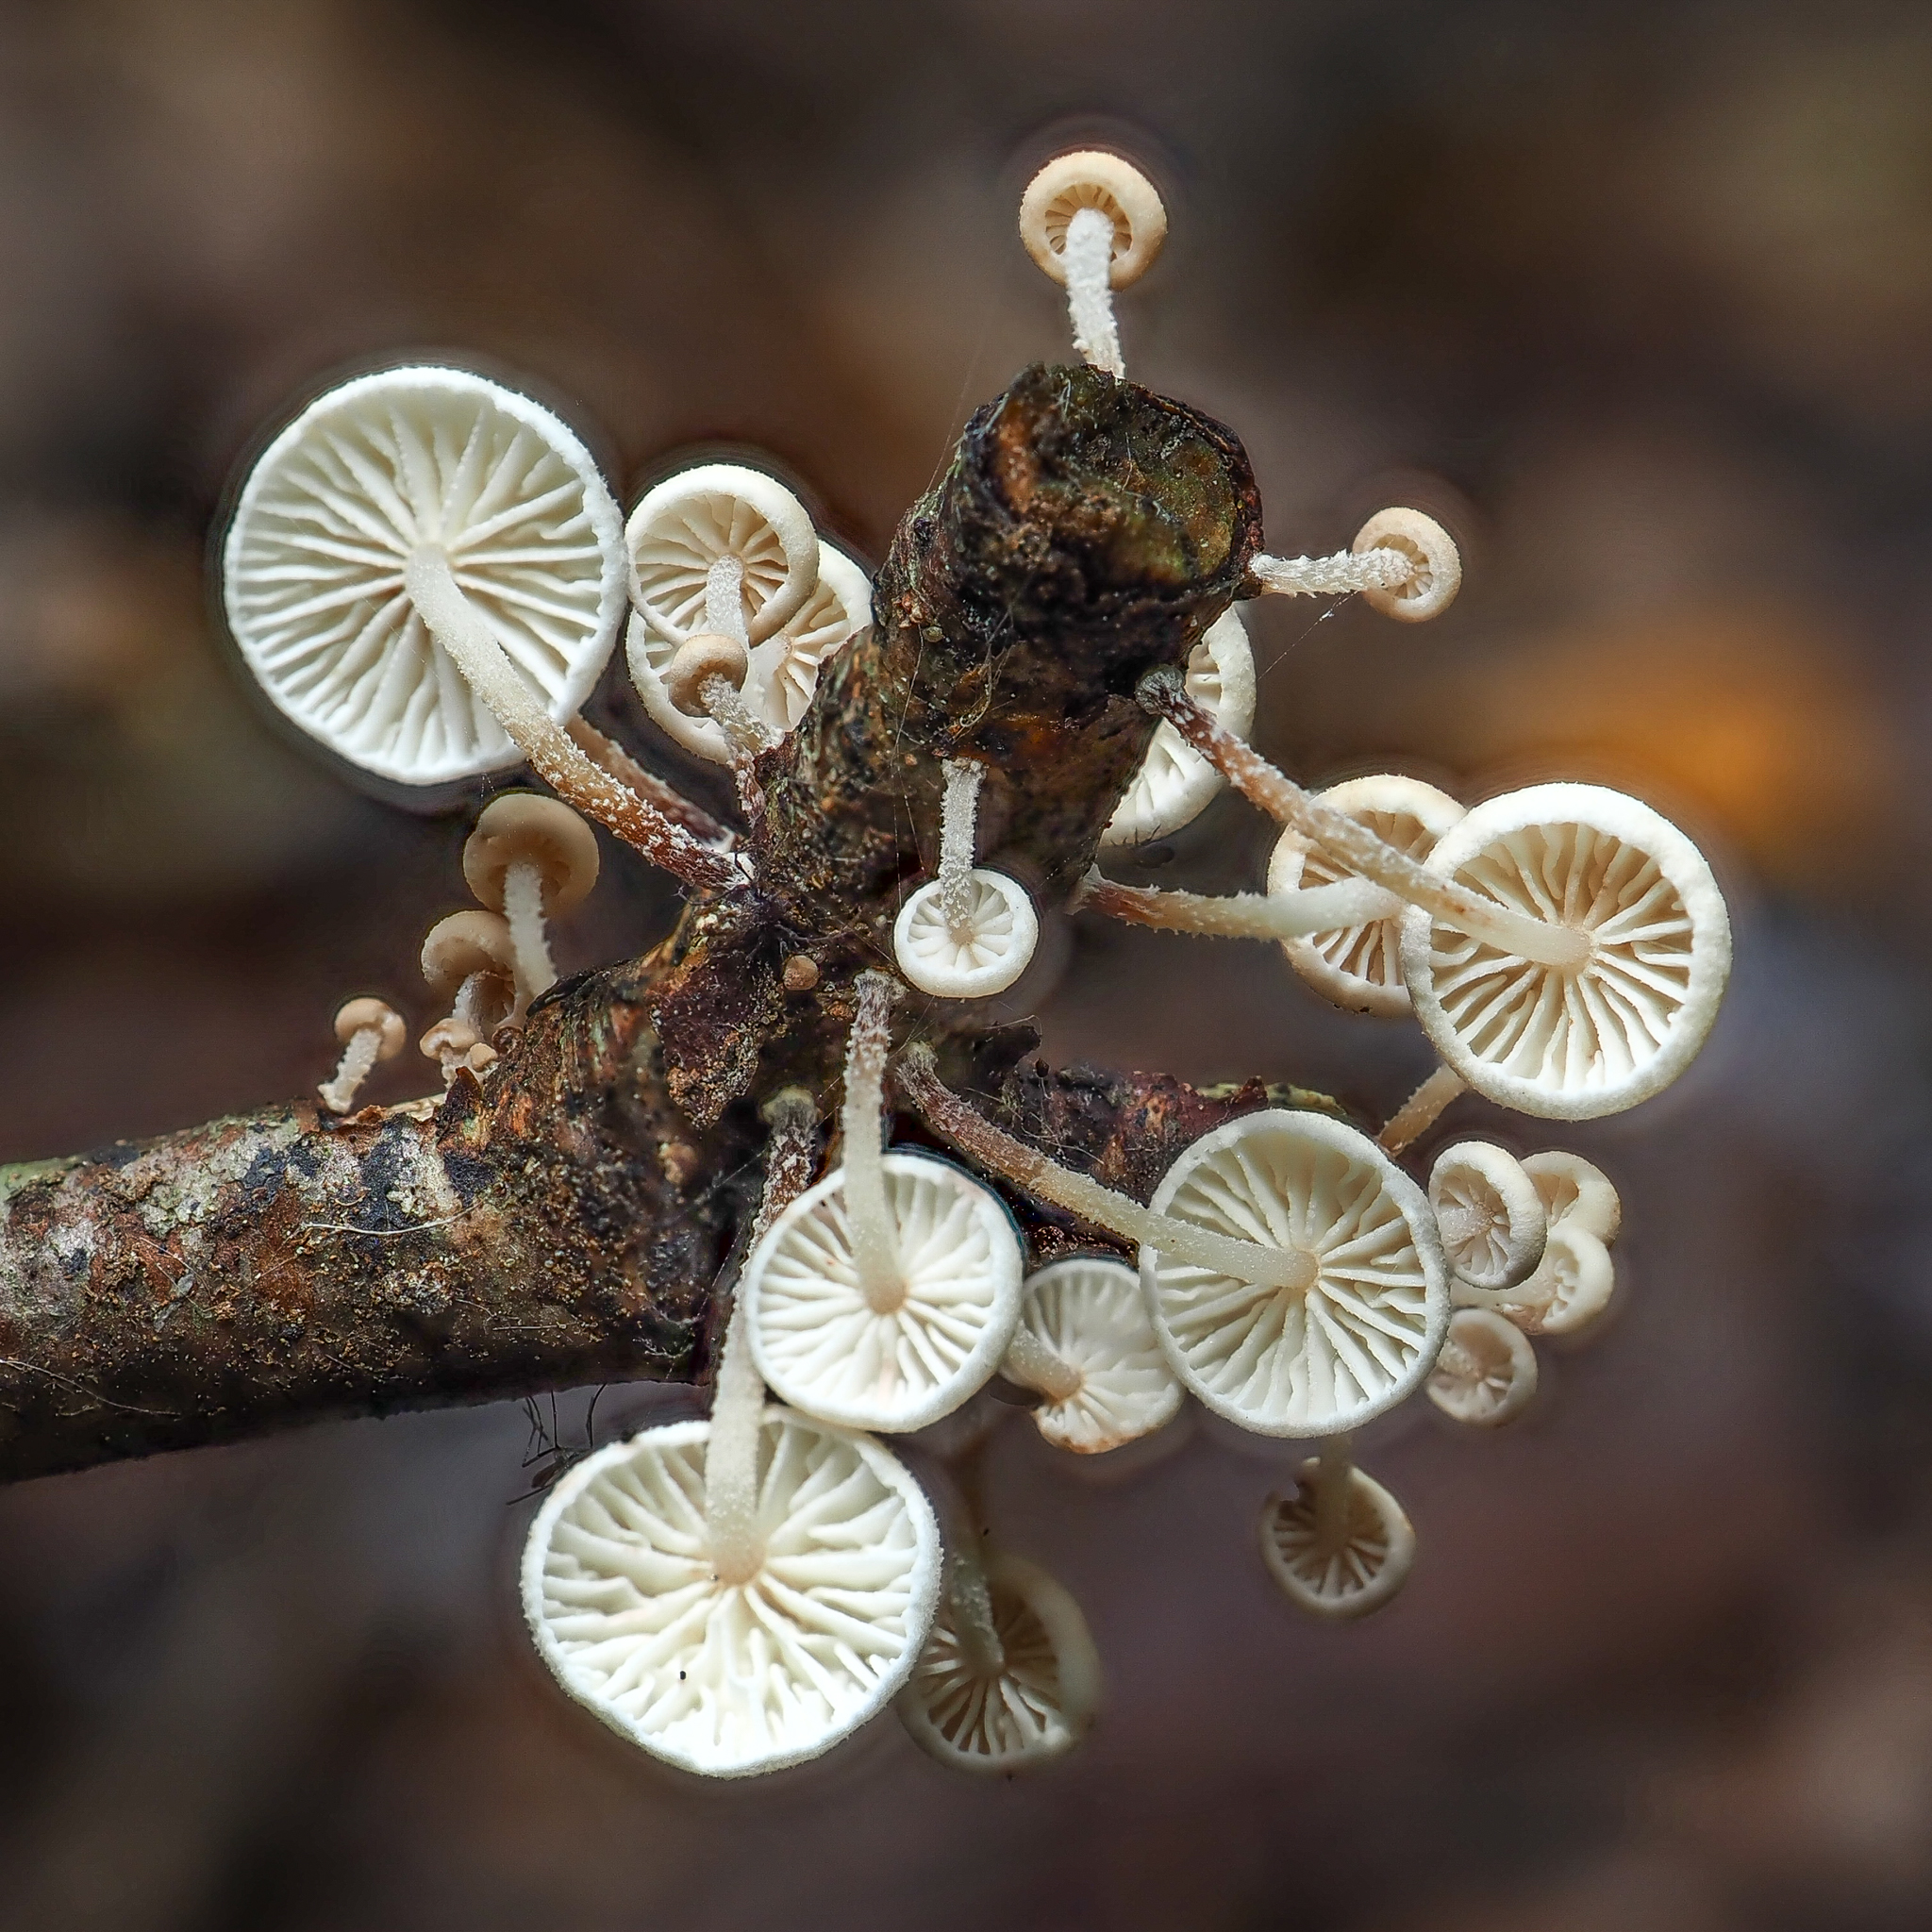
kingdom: Fungi
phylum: Basidiomycota
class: Agaricomycetes
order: Agaricales
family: Omphalotaceae
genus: Collybiopsis
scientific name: Collybiopsis ramealis
